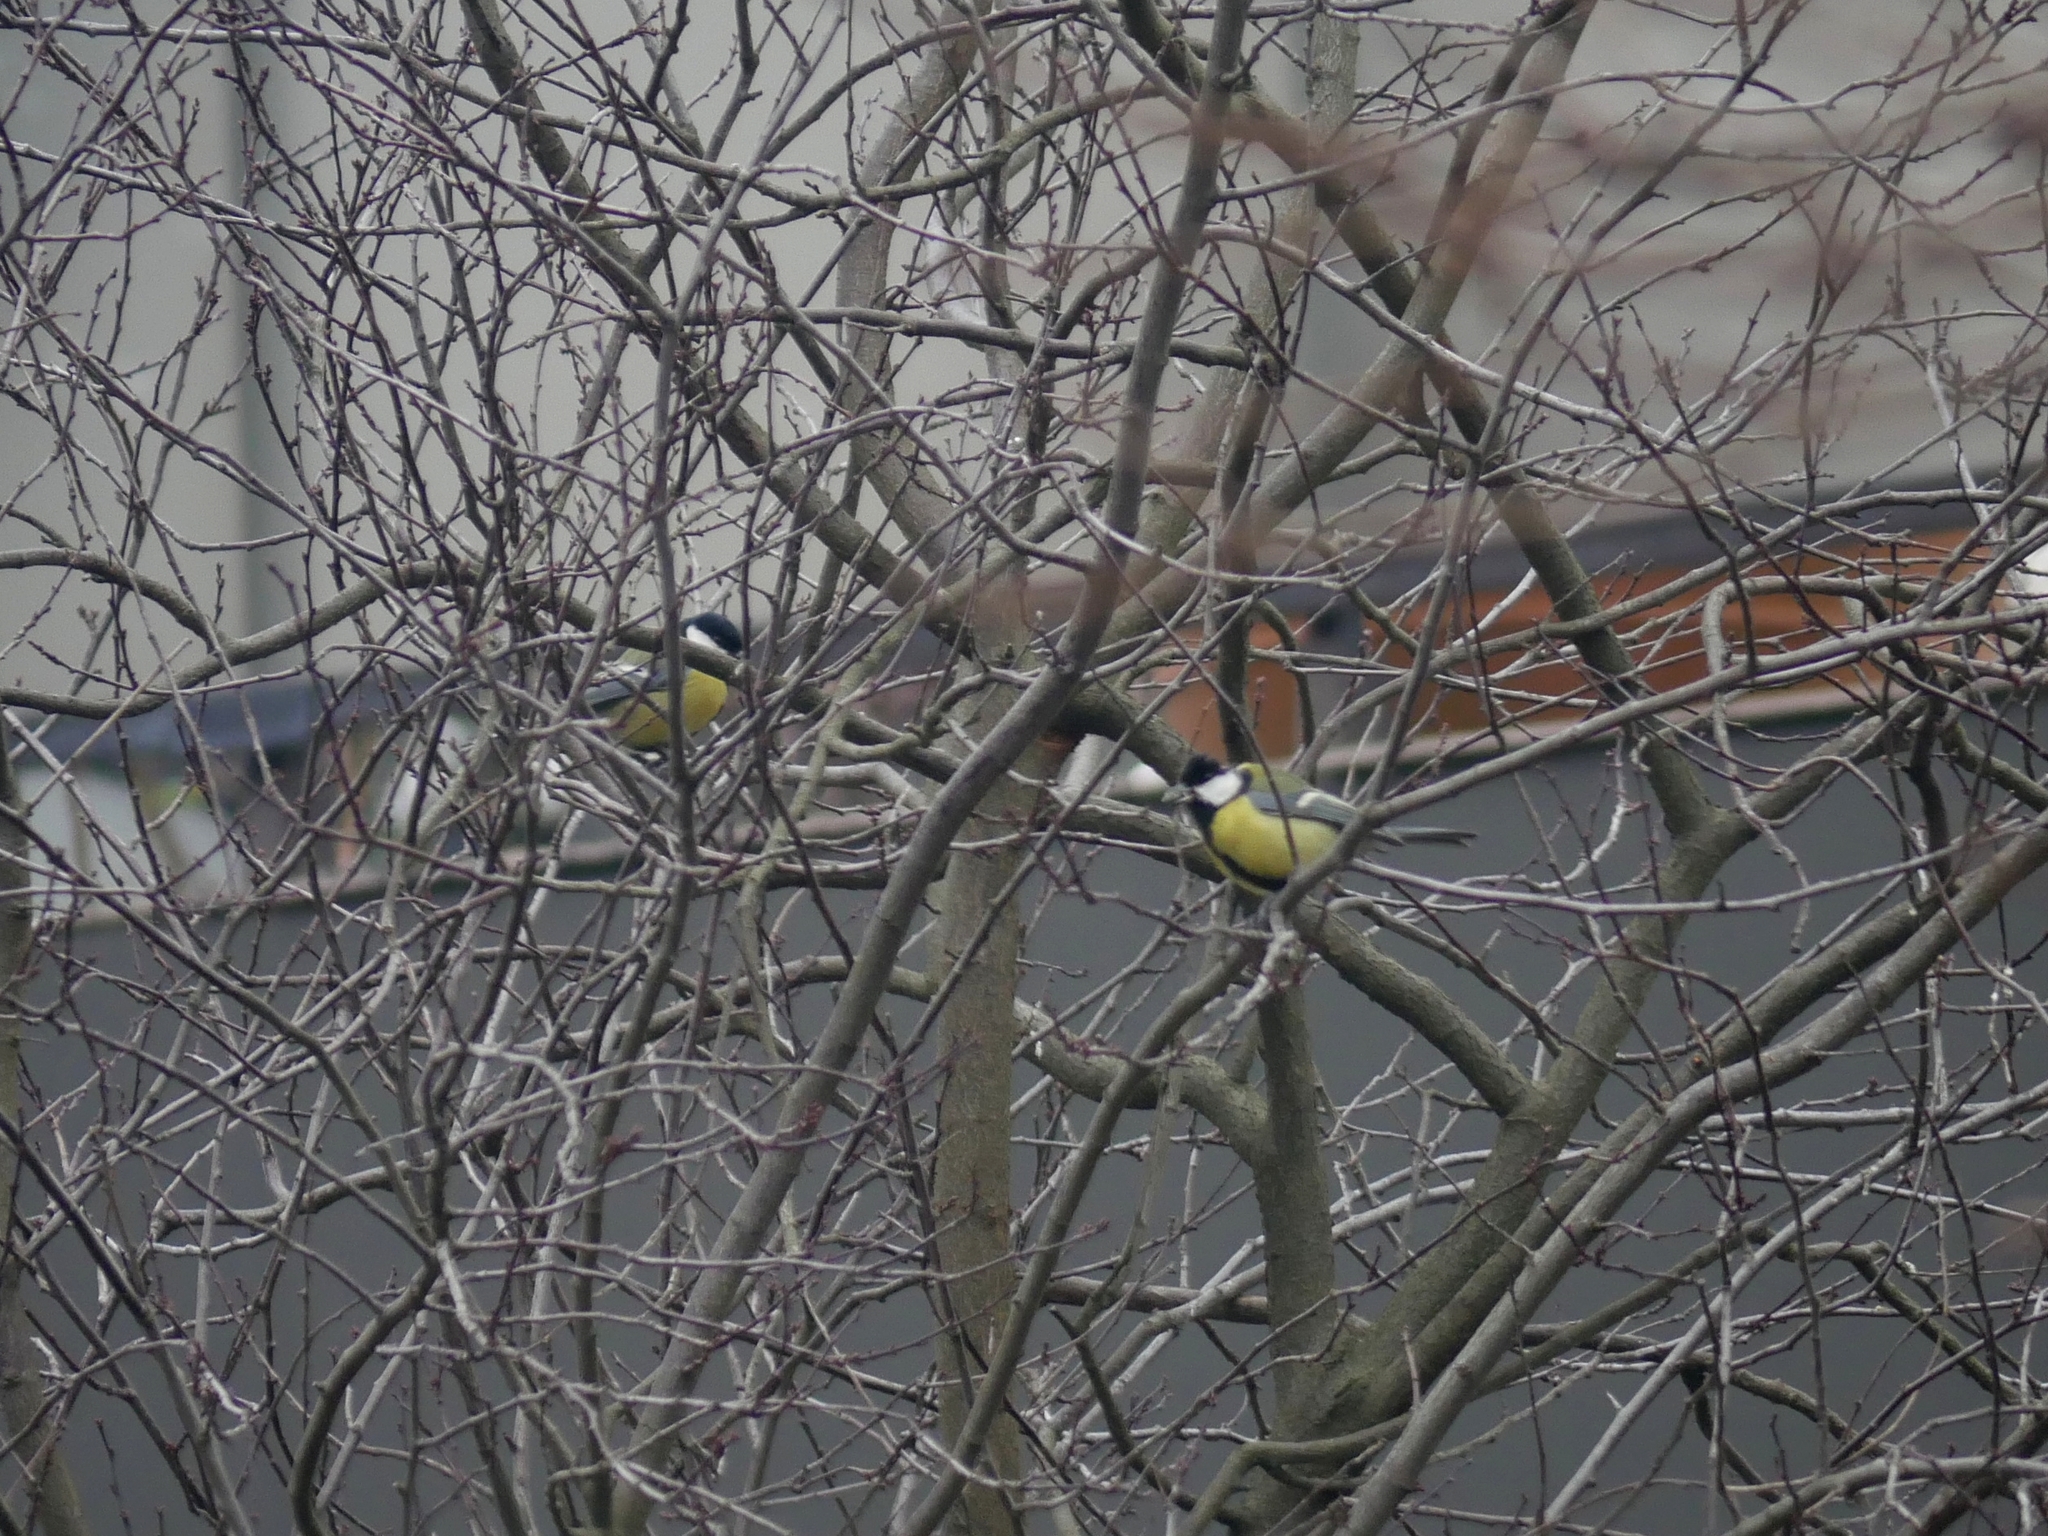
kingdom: Animalia
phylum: Chordata
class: Aves
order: Passeriformes
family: Paridae
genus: Parus
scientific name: Parus major
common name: Great tit
